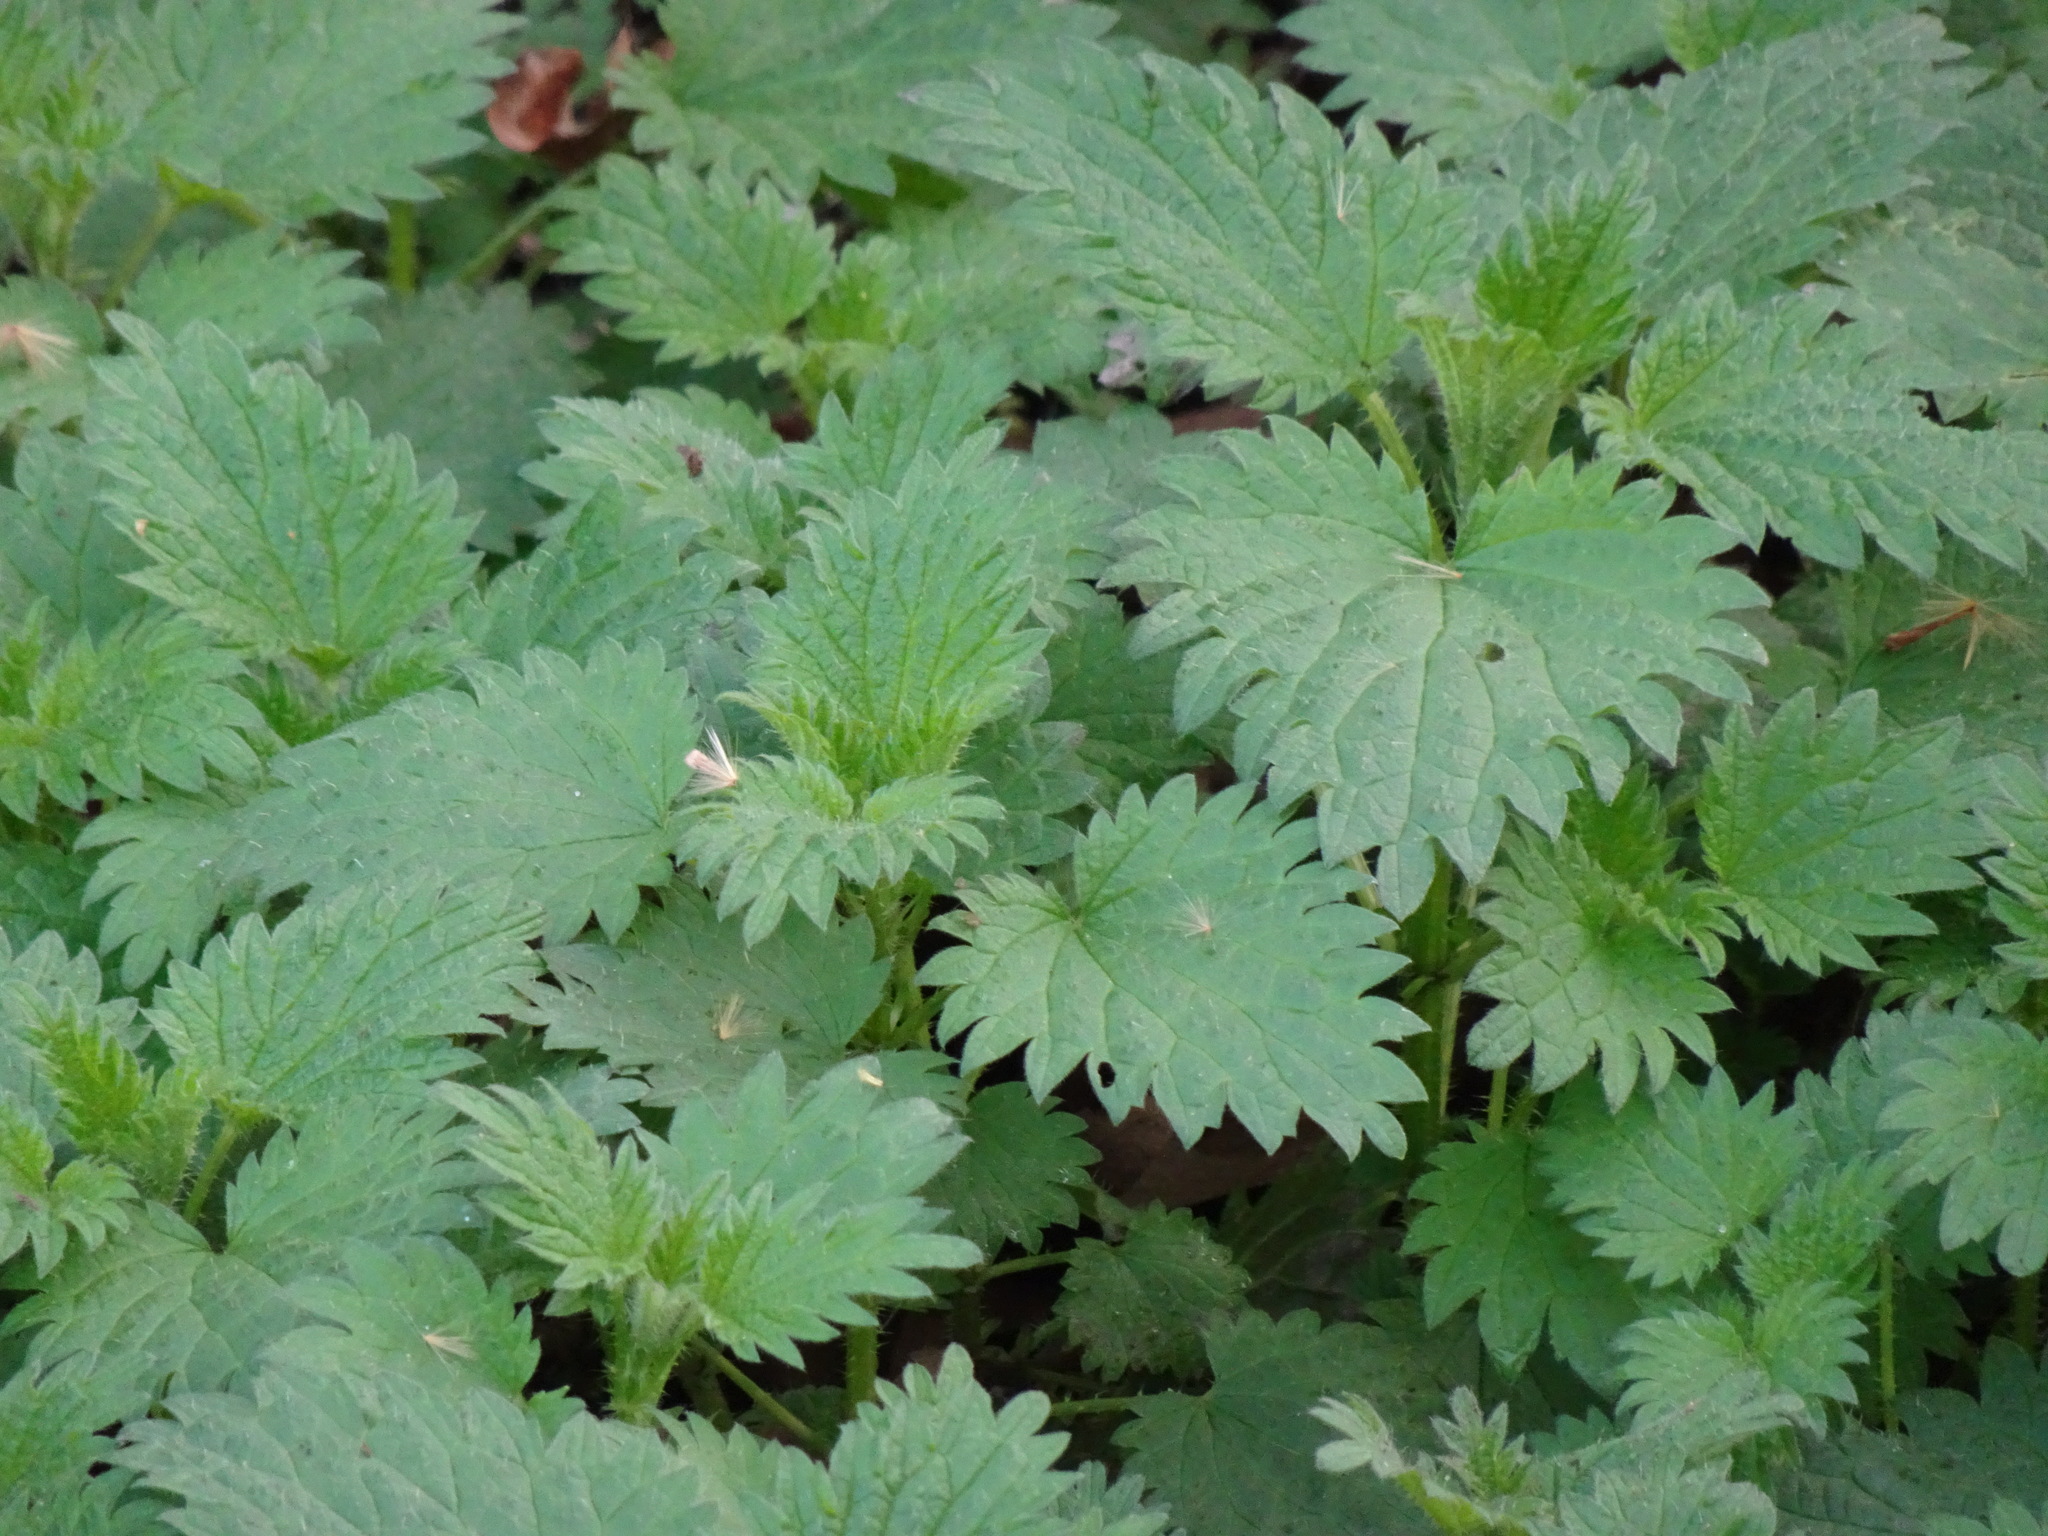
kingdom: Plantae
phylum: Tracheophyta
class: Magnoliopsida
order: Rosales
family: Urticaceae
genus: Urtica
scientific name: Urtica dioica
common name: Common nettle
